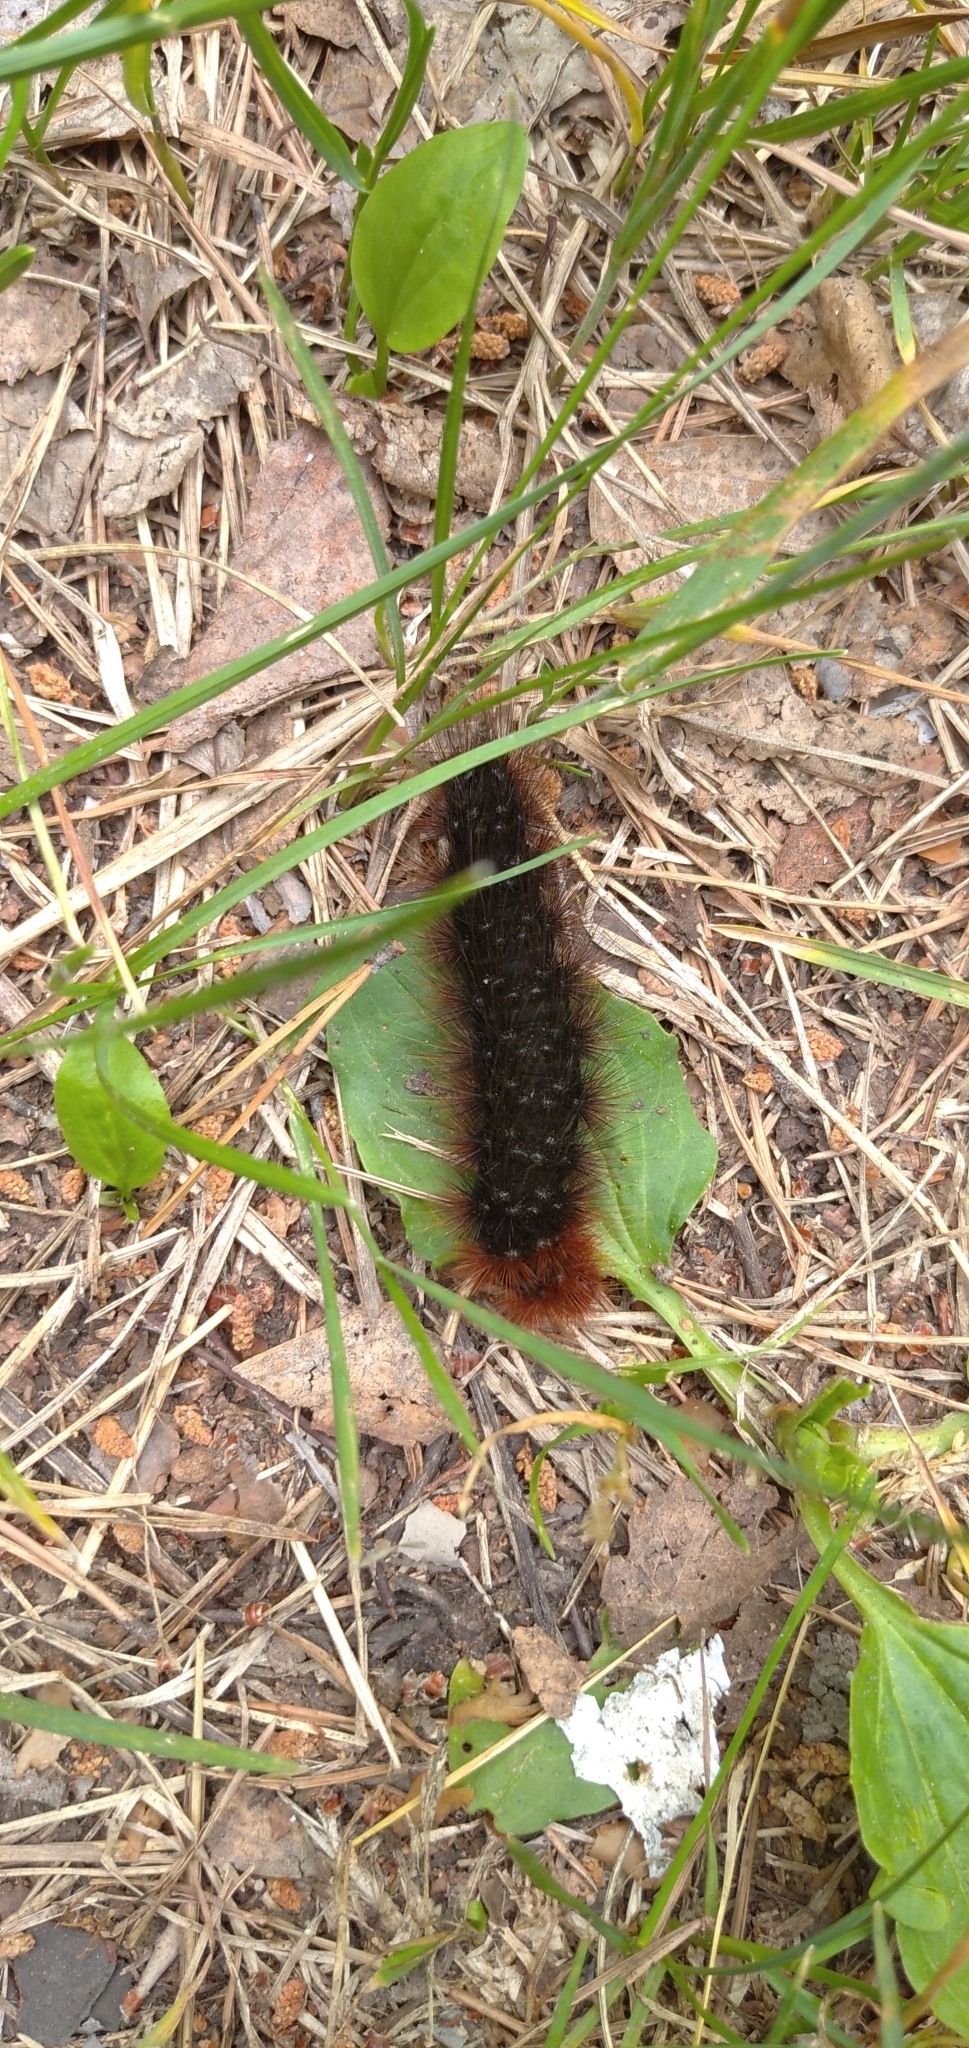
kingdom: Animalia
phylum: Arthropoda
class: Insecta
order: Lepidoptera
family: Erebidae
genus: Arctia
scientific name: Arctia caja
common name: Garden tiger
